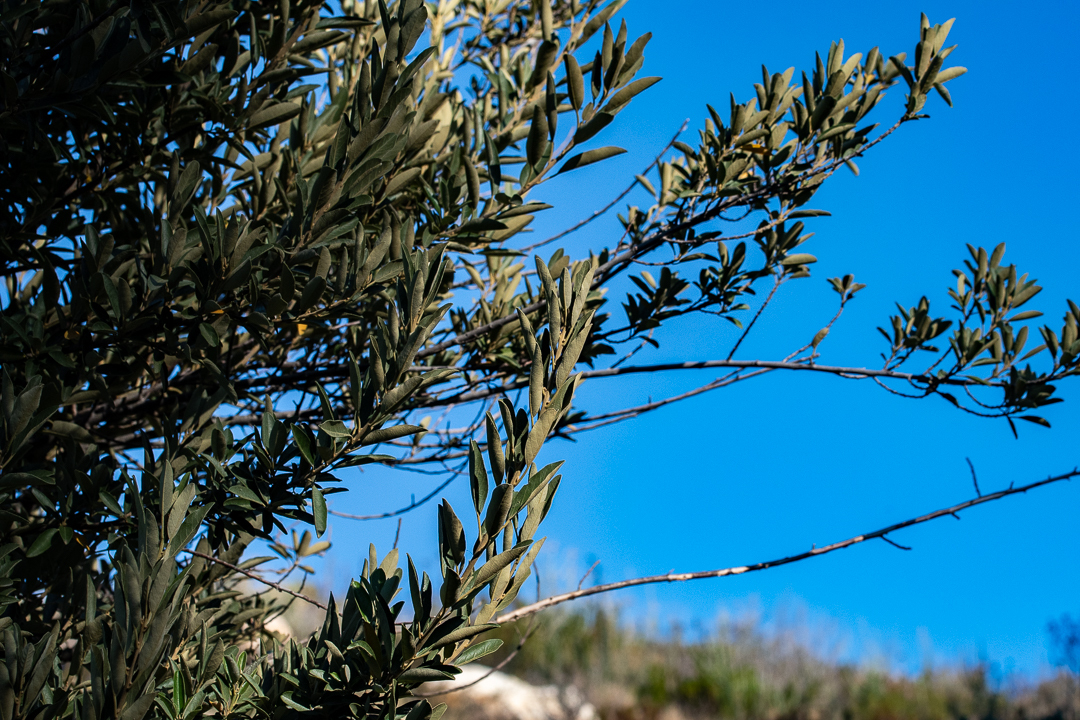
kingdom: Plantae
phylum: Tracheophyta
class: Magnoliopsida
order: Malpighiales
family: Achariaceae
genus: Kiggelaria
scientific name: Kiggelaria africana
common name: Wild peach
